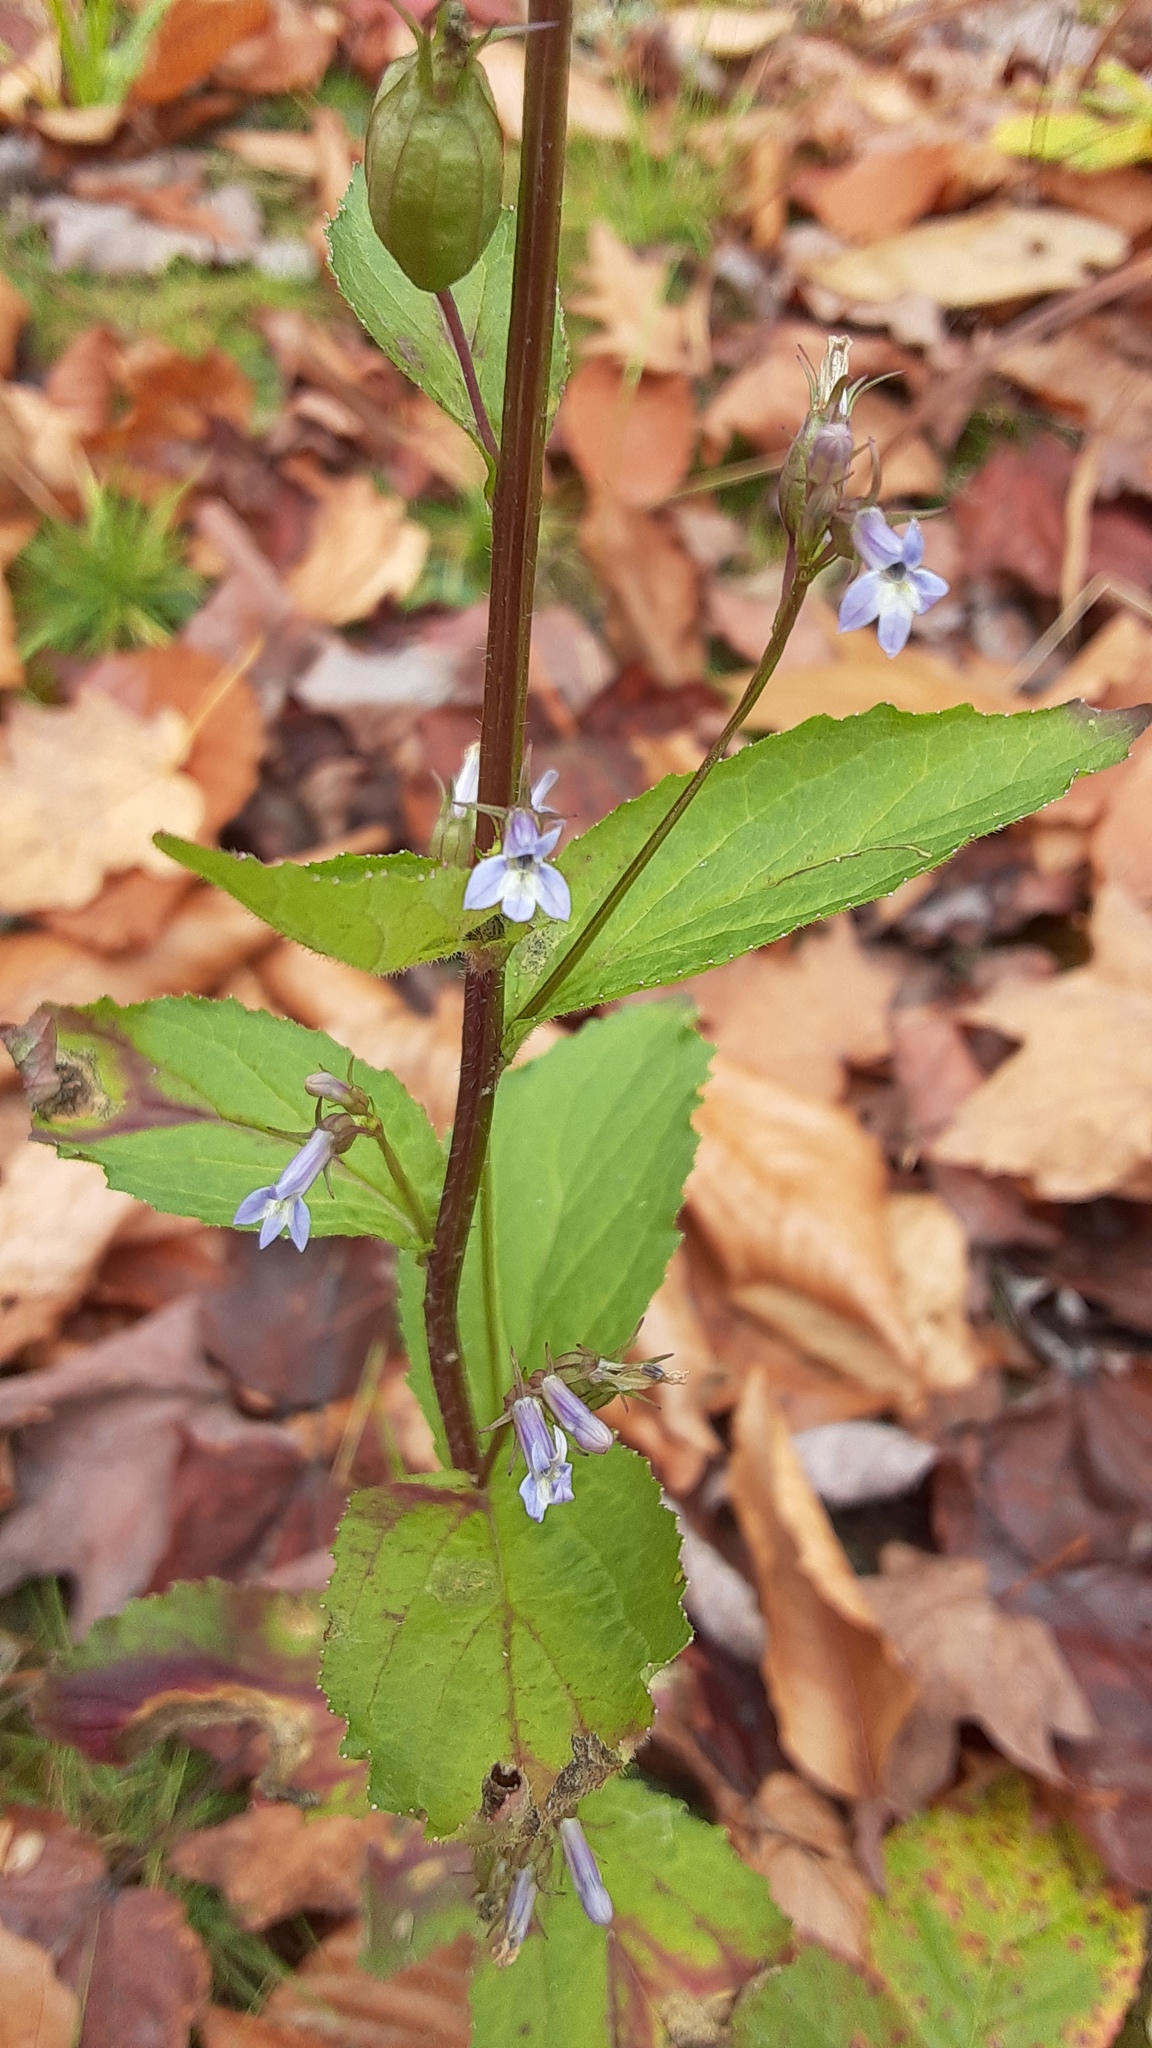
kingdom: Plantae
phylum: Tracheophyta
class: Magnoliopsida
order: Asterales
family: Campanulaceae
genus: Lobelia
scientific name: Lobelia inflata
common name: Indian tobacco
